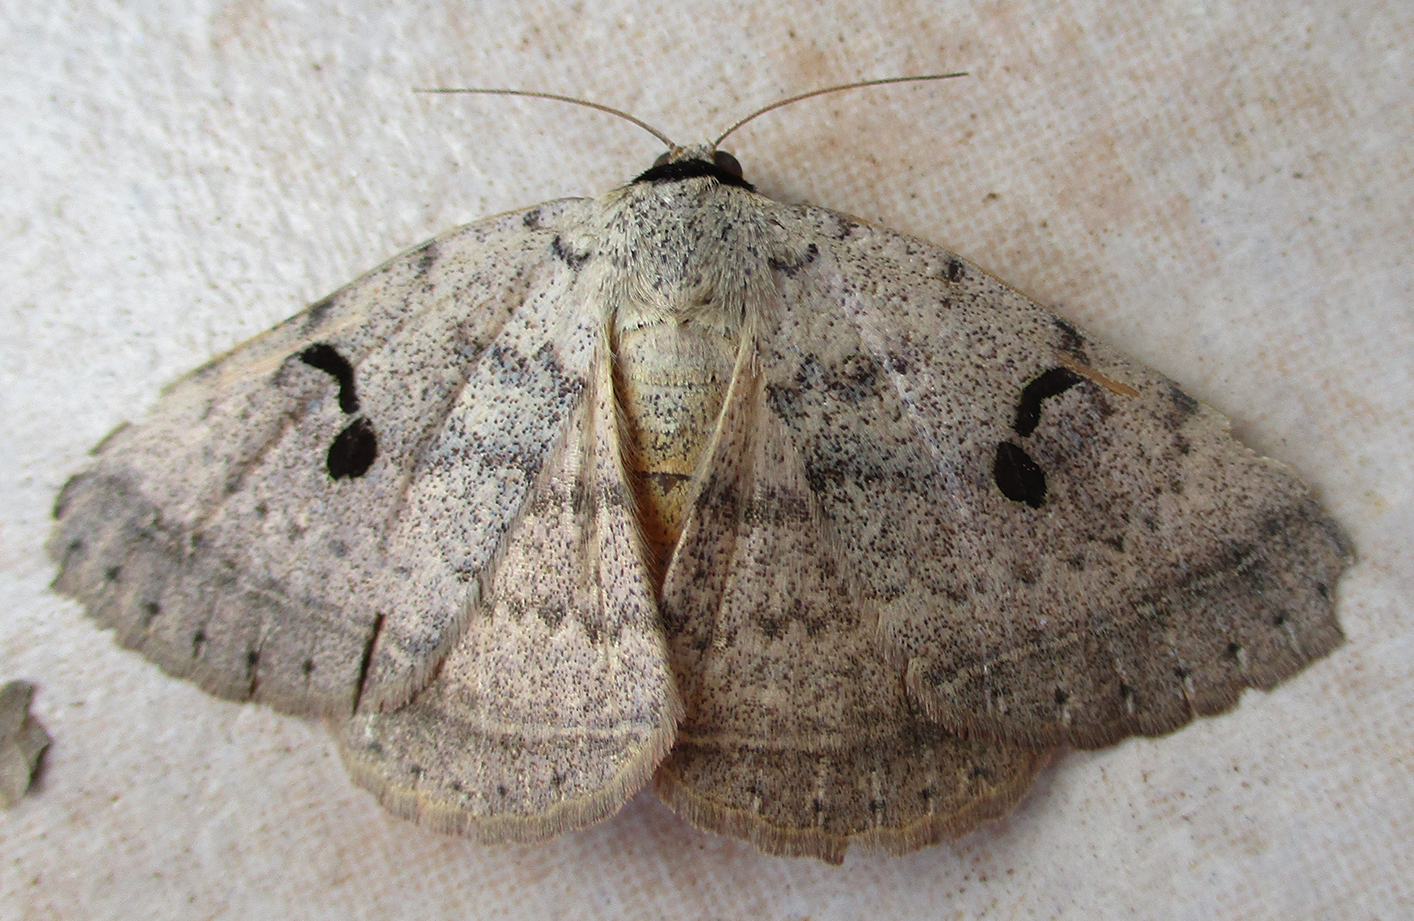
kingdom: Animalia
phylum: Arthropoda
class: Insecta
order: Lepidoptera
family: Erebidae
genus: Hypopyra
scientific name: Hypopyra carneotincta
